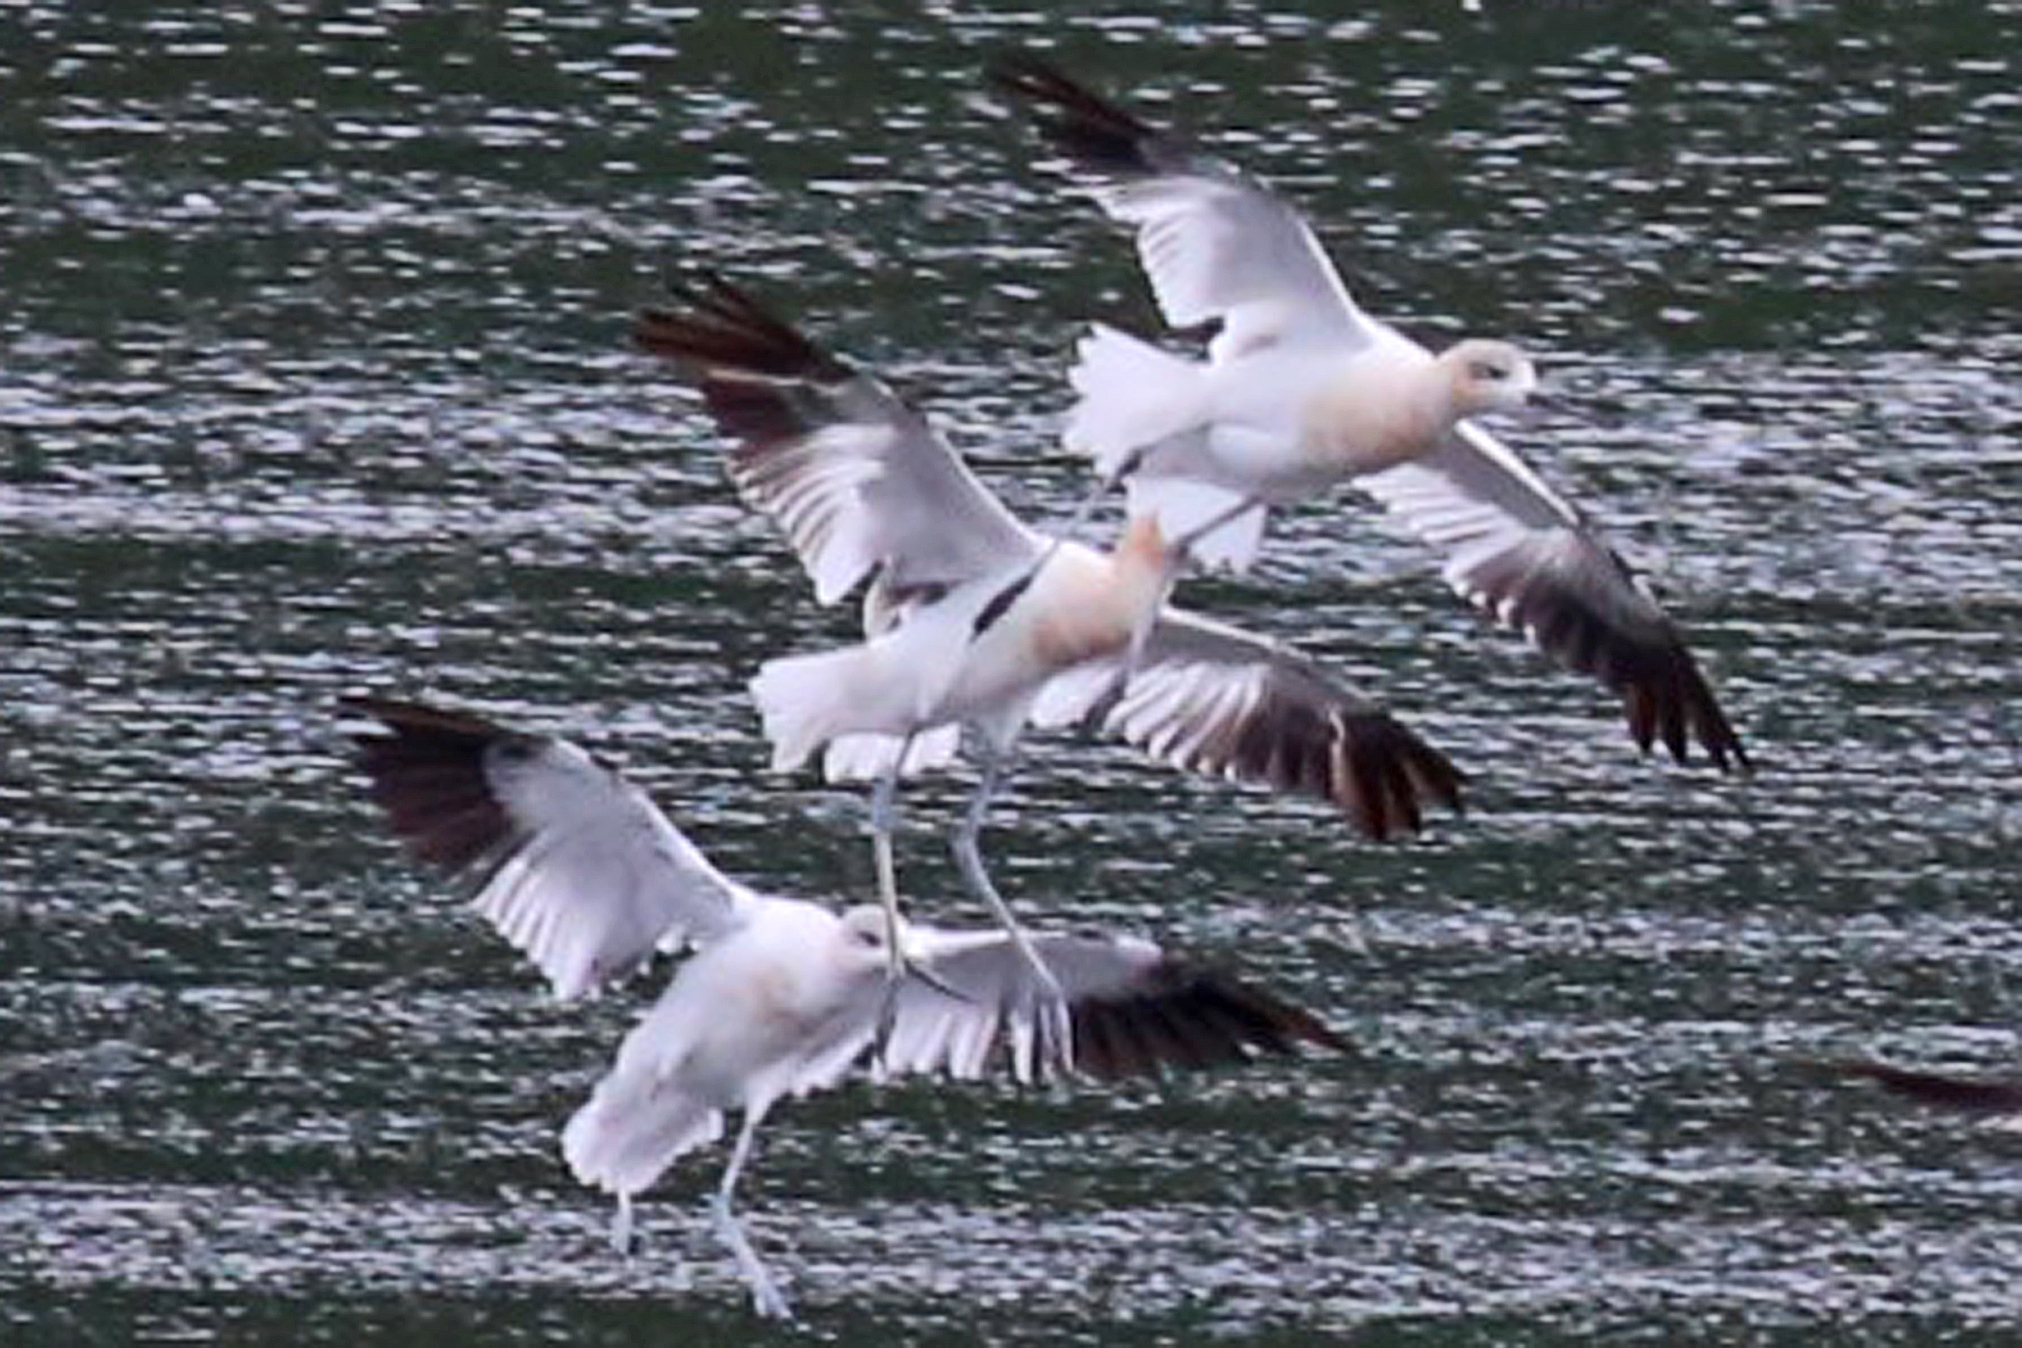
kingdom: Animalia
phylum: Chordata
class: Aves
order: Charadriiformes
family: Recurvirostridae
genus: Recurvirostra
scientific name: Recurvirostra americana
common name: American avocet
